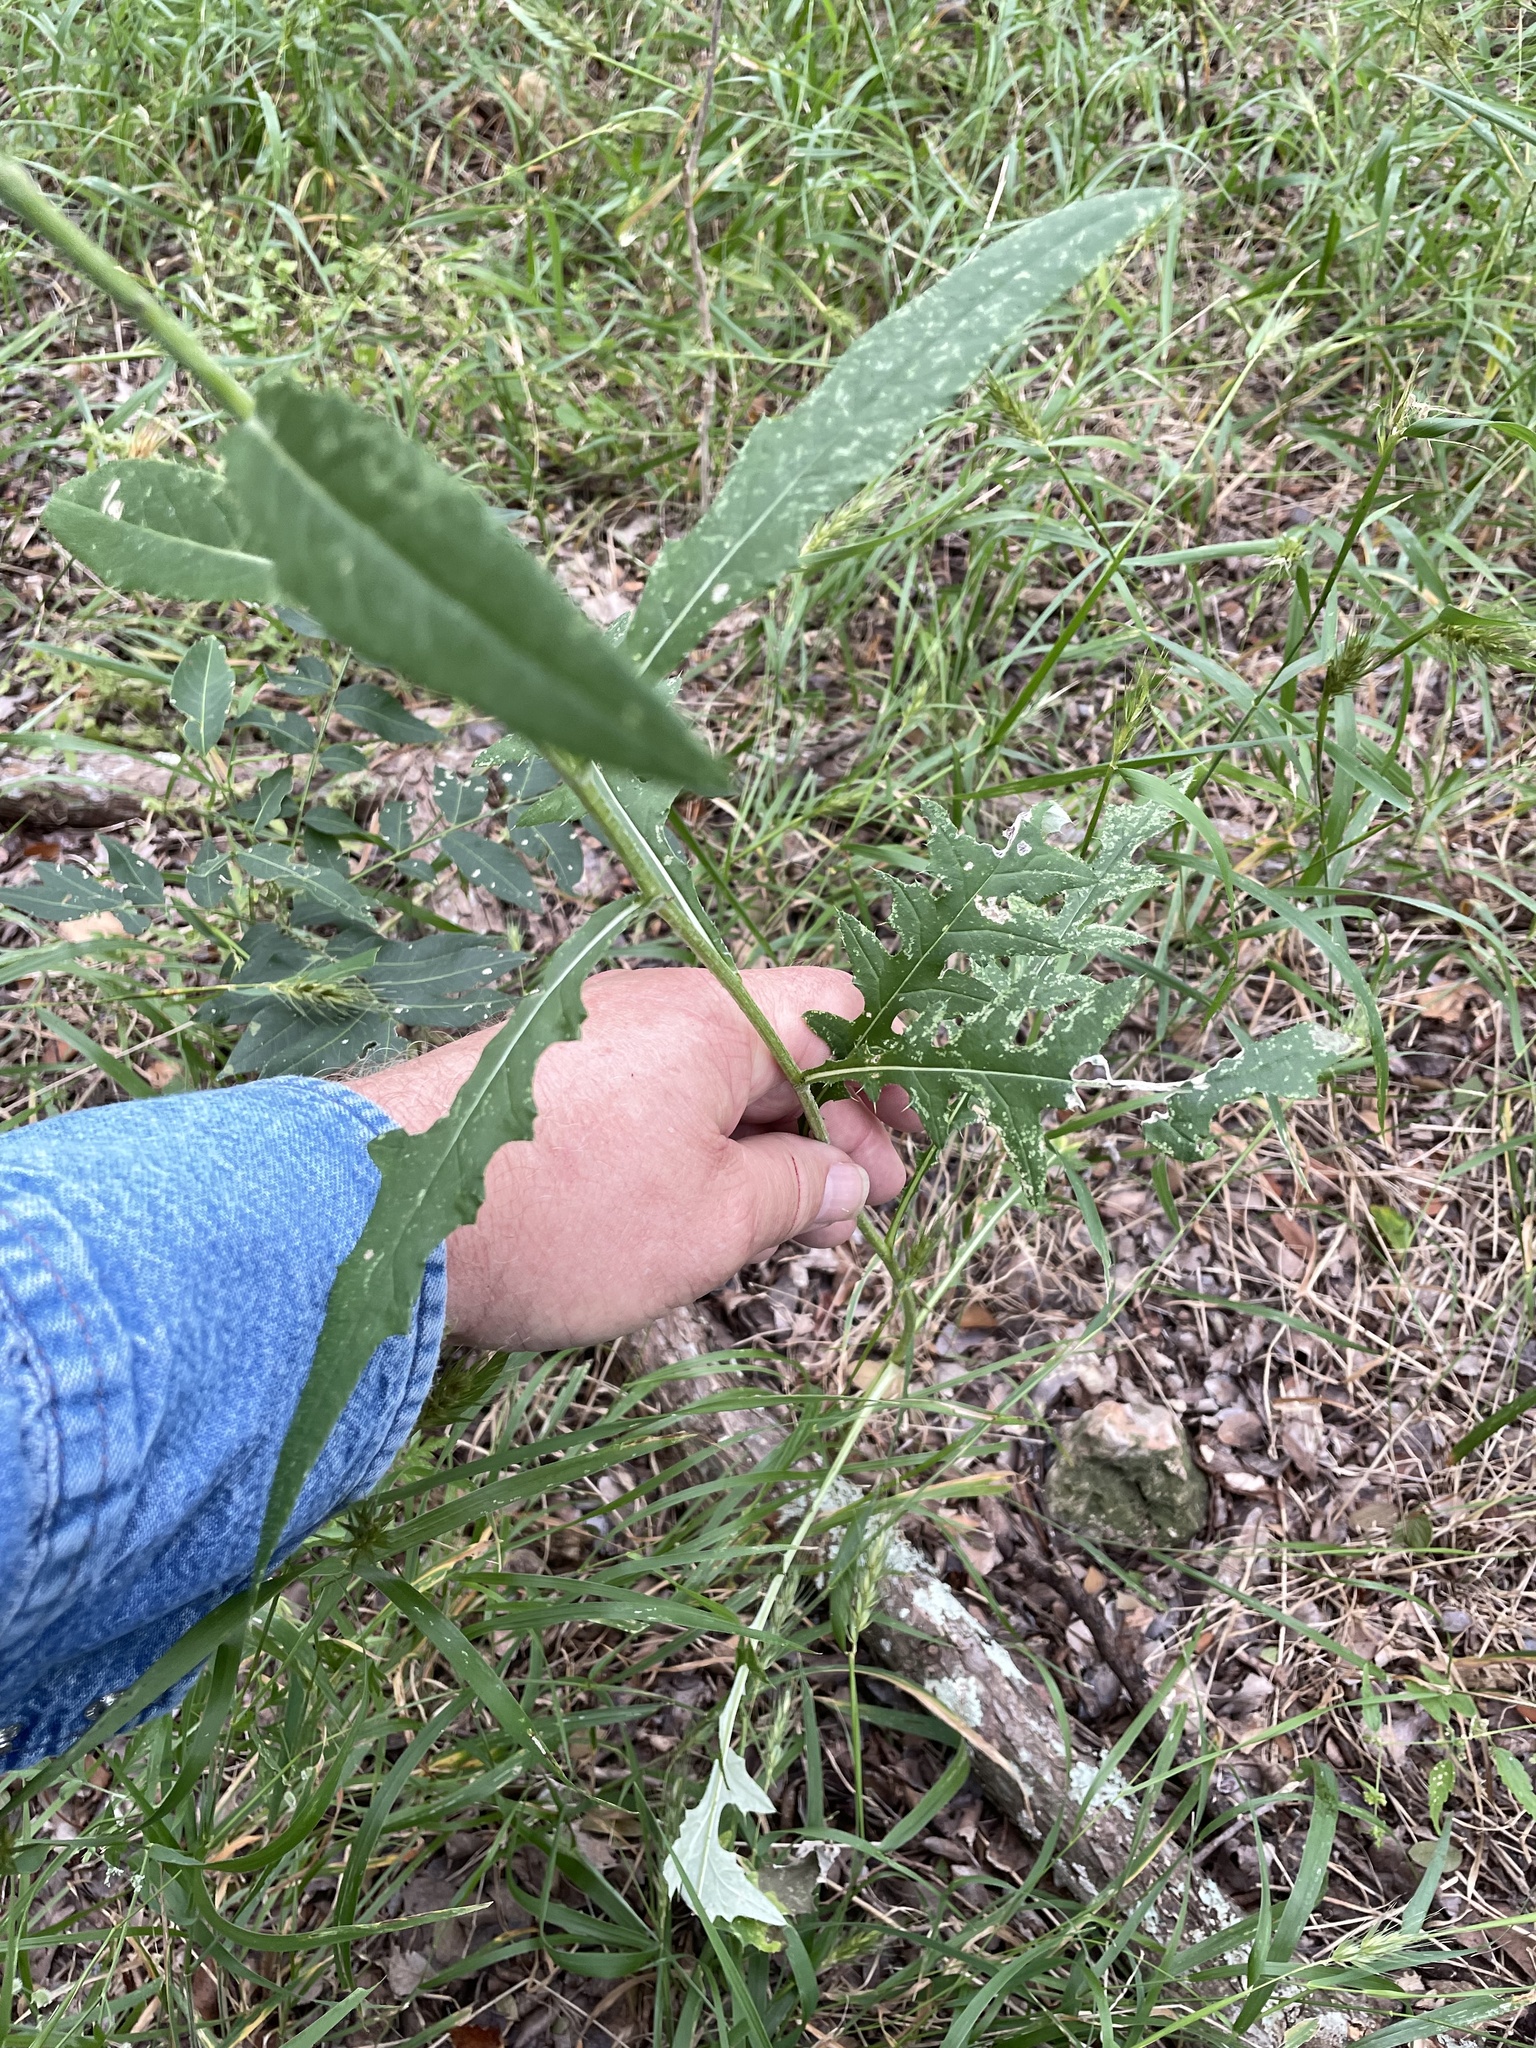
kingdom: Plantae
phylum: Tracheophyta
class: Magnoliopsida
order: Asterales
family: Asteraceae
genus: Cirsium
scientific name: Cirsium altissimum
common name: Roadside thistle
